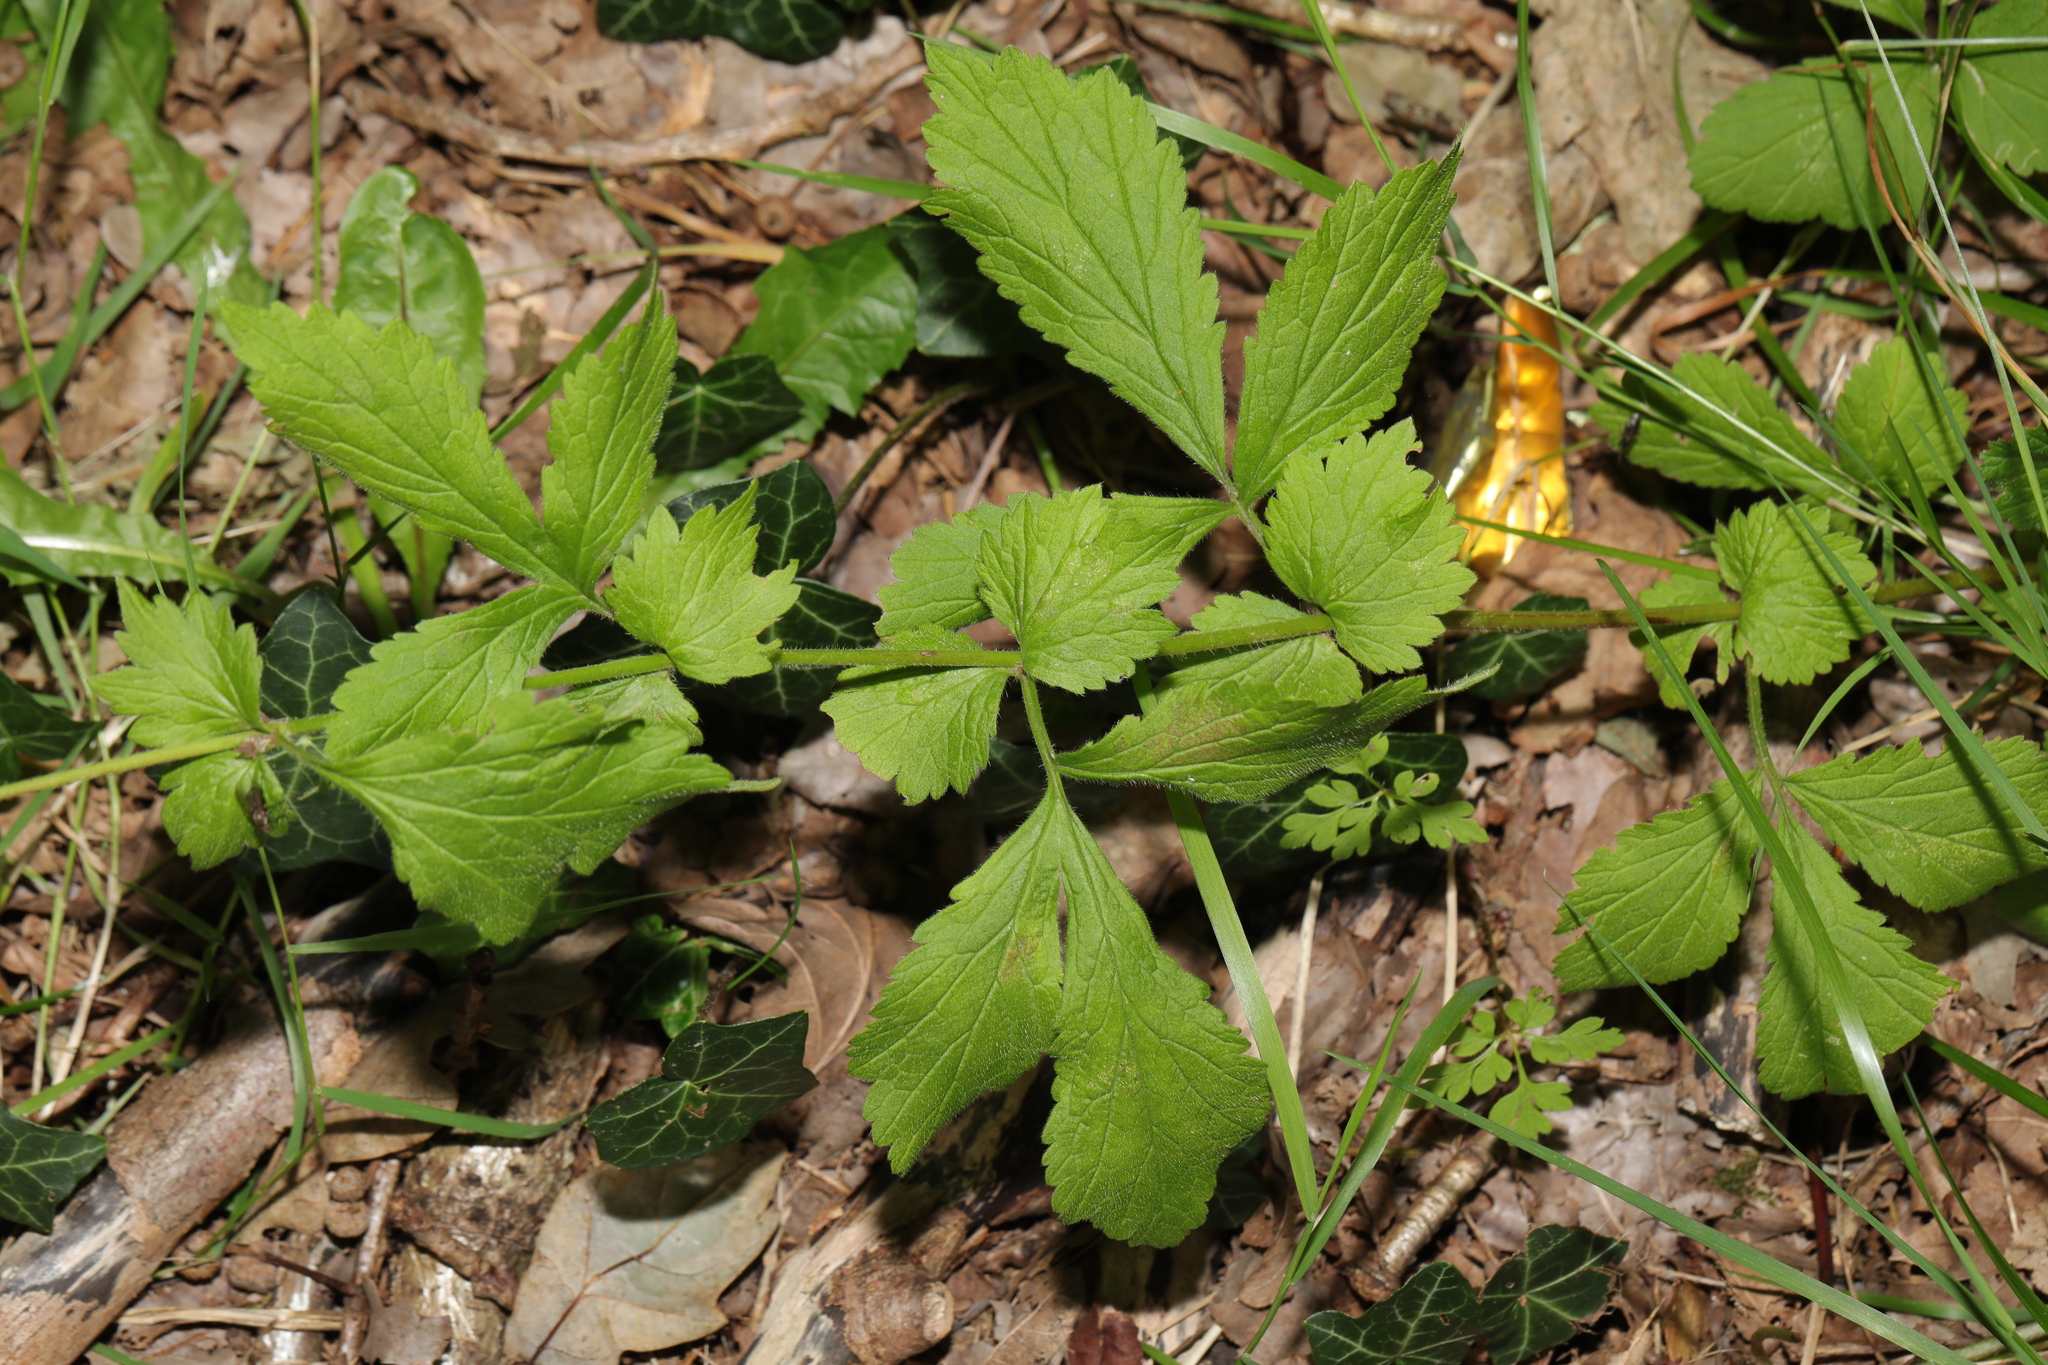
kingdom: Plantae
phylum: Tracheophyta
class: Magnoliopsida
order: Rosales
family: Rosaceae
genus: Geum
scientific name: Geum urbanum
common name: Wood avens
